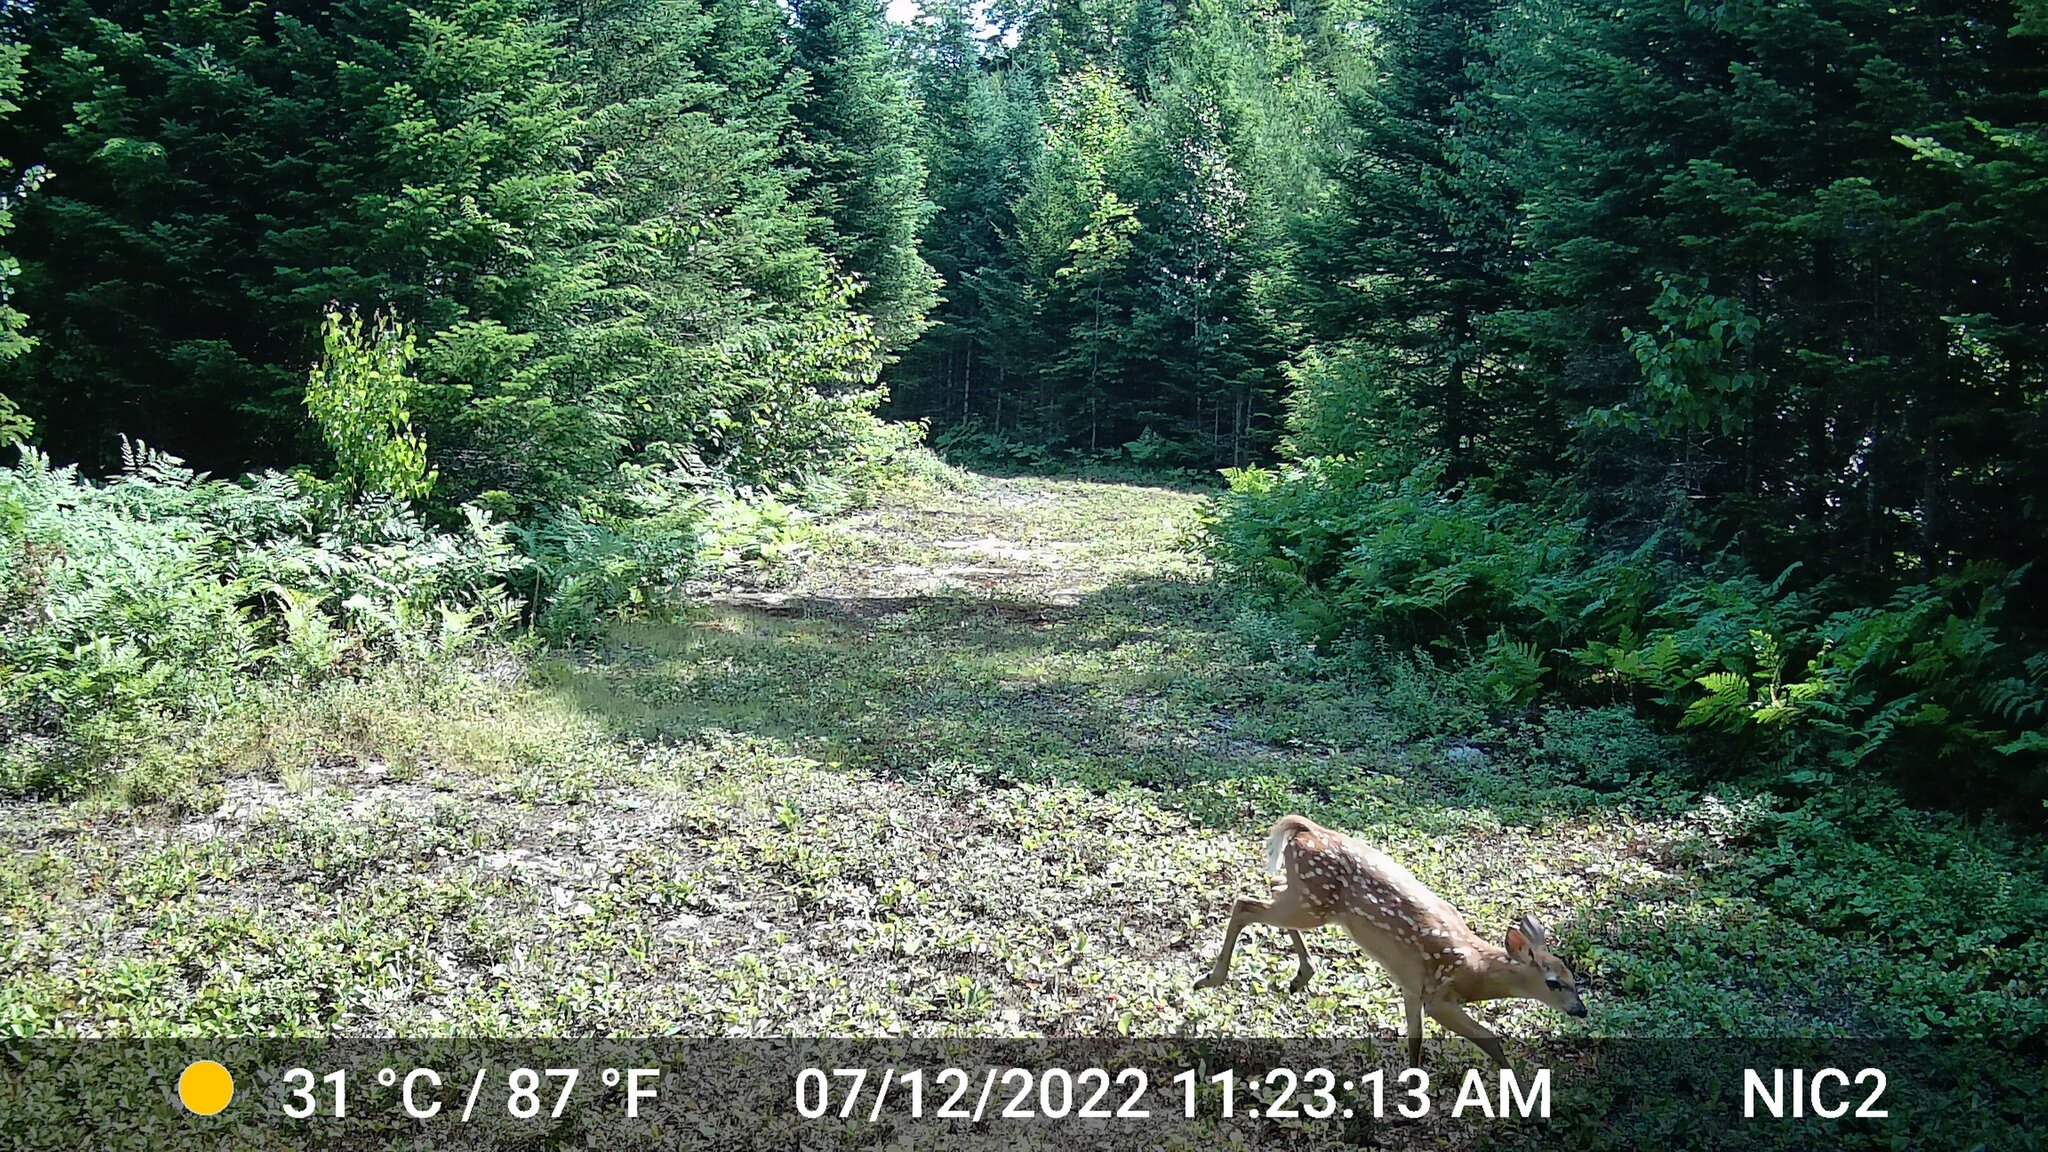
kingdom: Animalia
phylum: Chordata
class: Mammalia
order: Artiodactyla
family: Cervidae
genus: Odocoileus
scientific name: Odocoileus virginianus
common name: White-tailed deer
